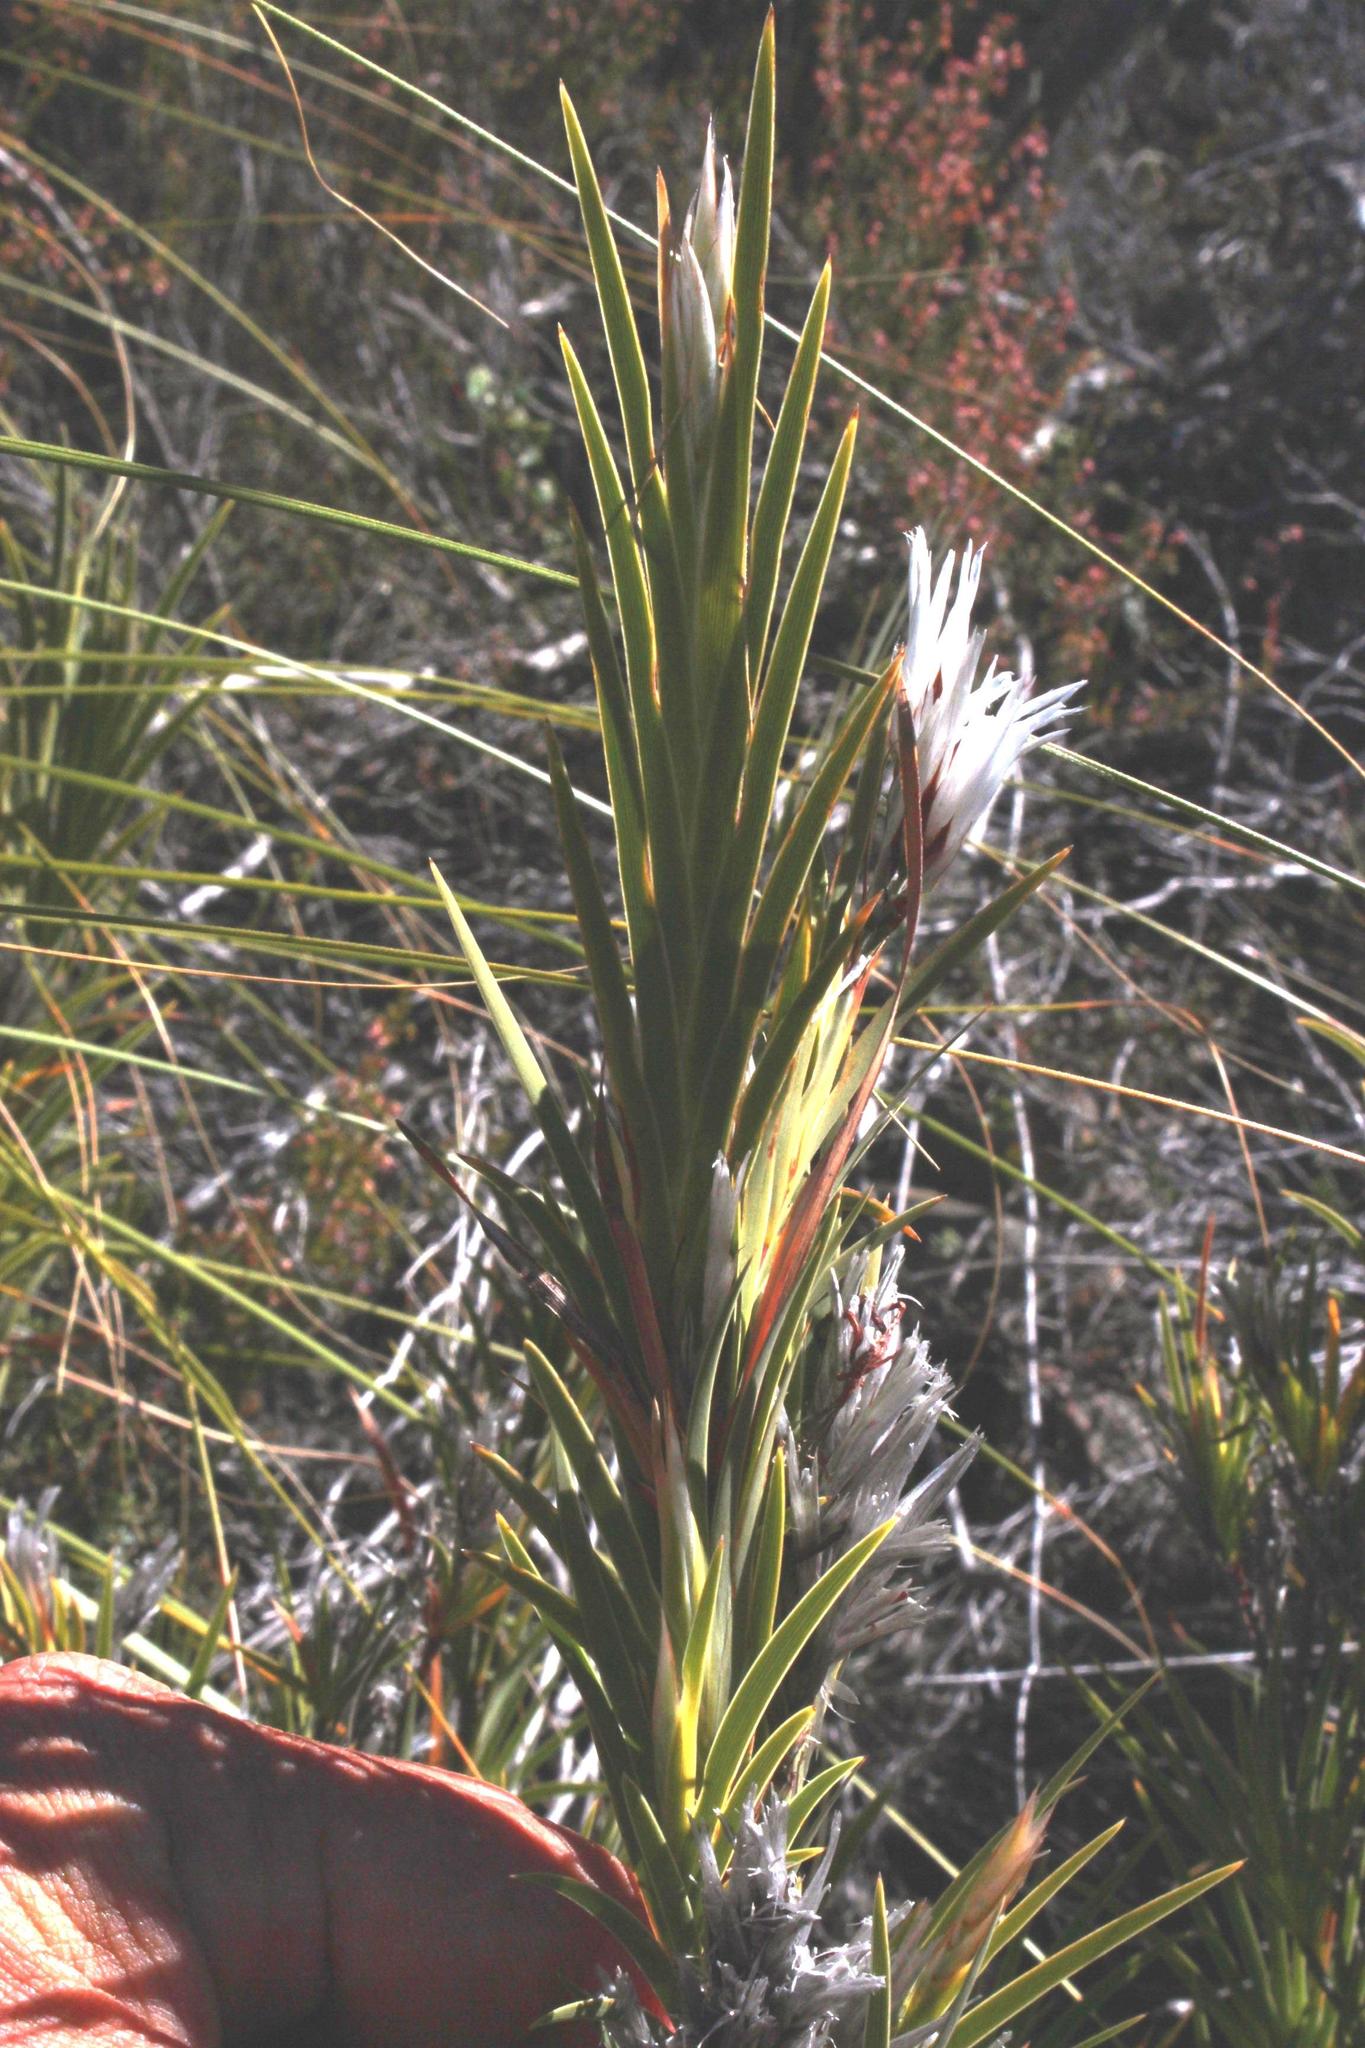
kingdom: Plantae
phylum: Tracheophyta
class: Liliopsida
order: Asparagales
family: Iridaceae
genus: Nivenia
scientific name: Nivenia inaequalis
